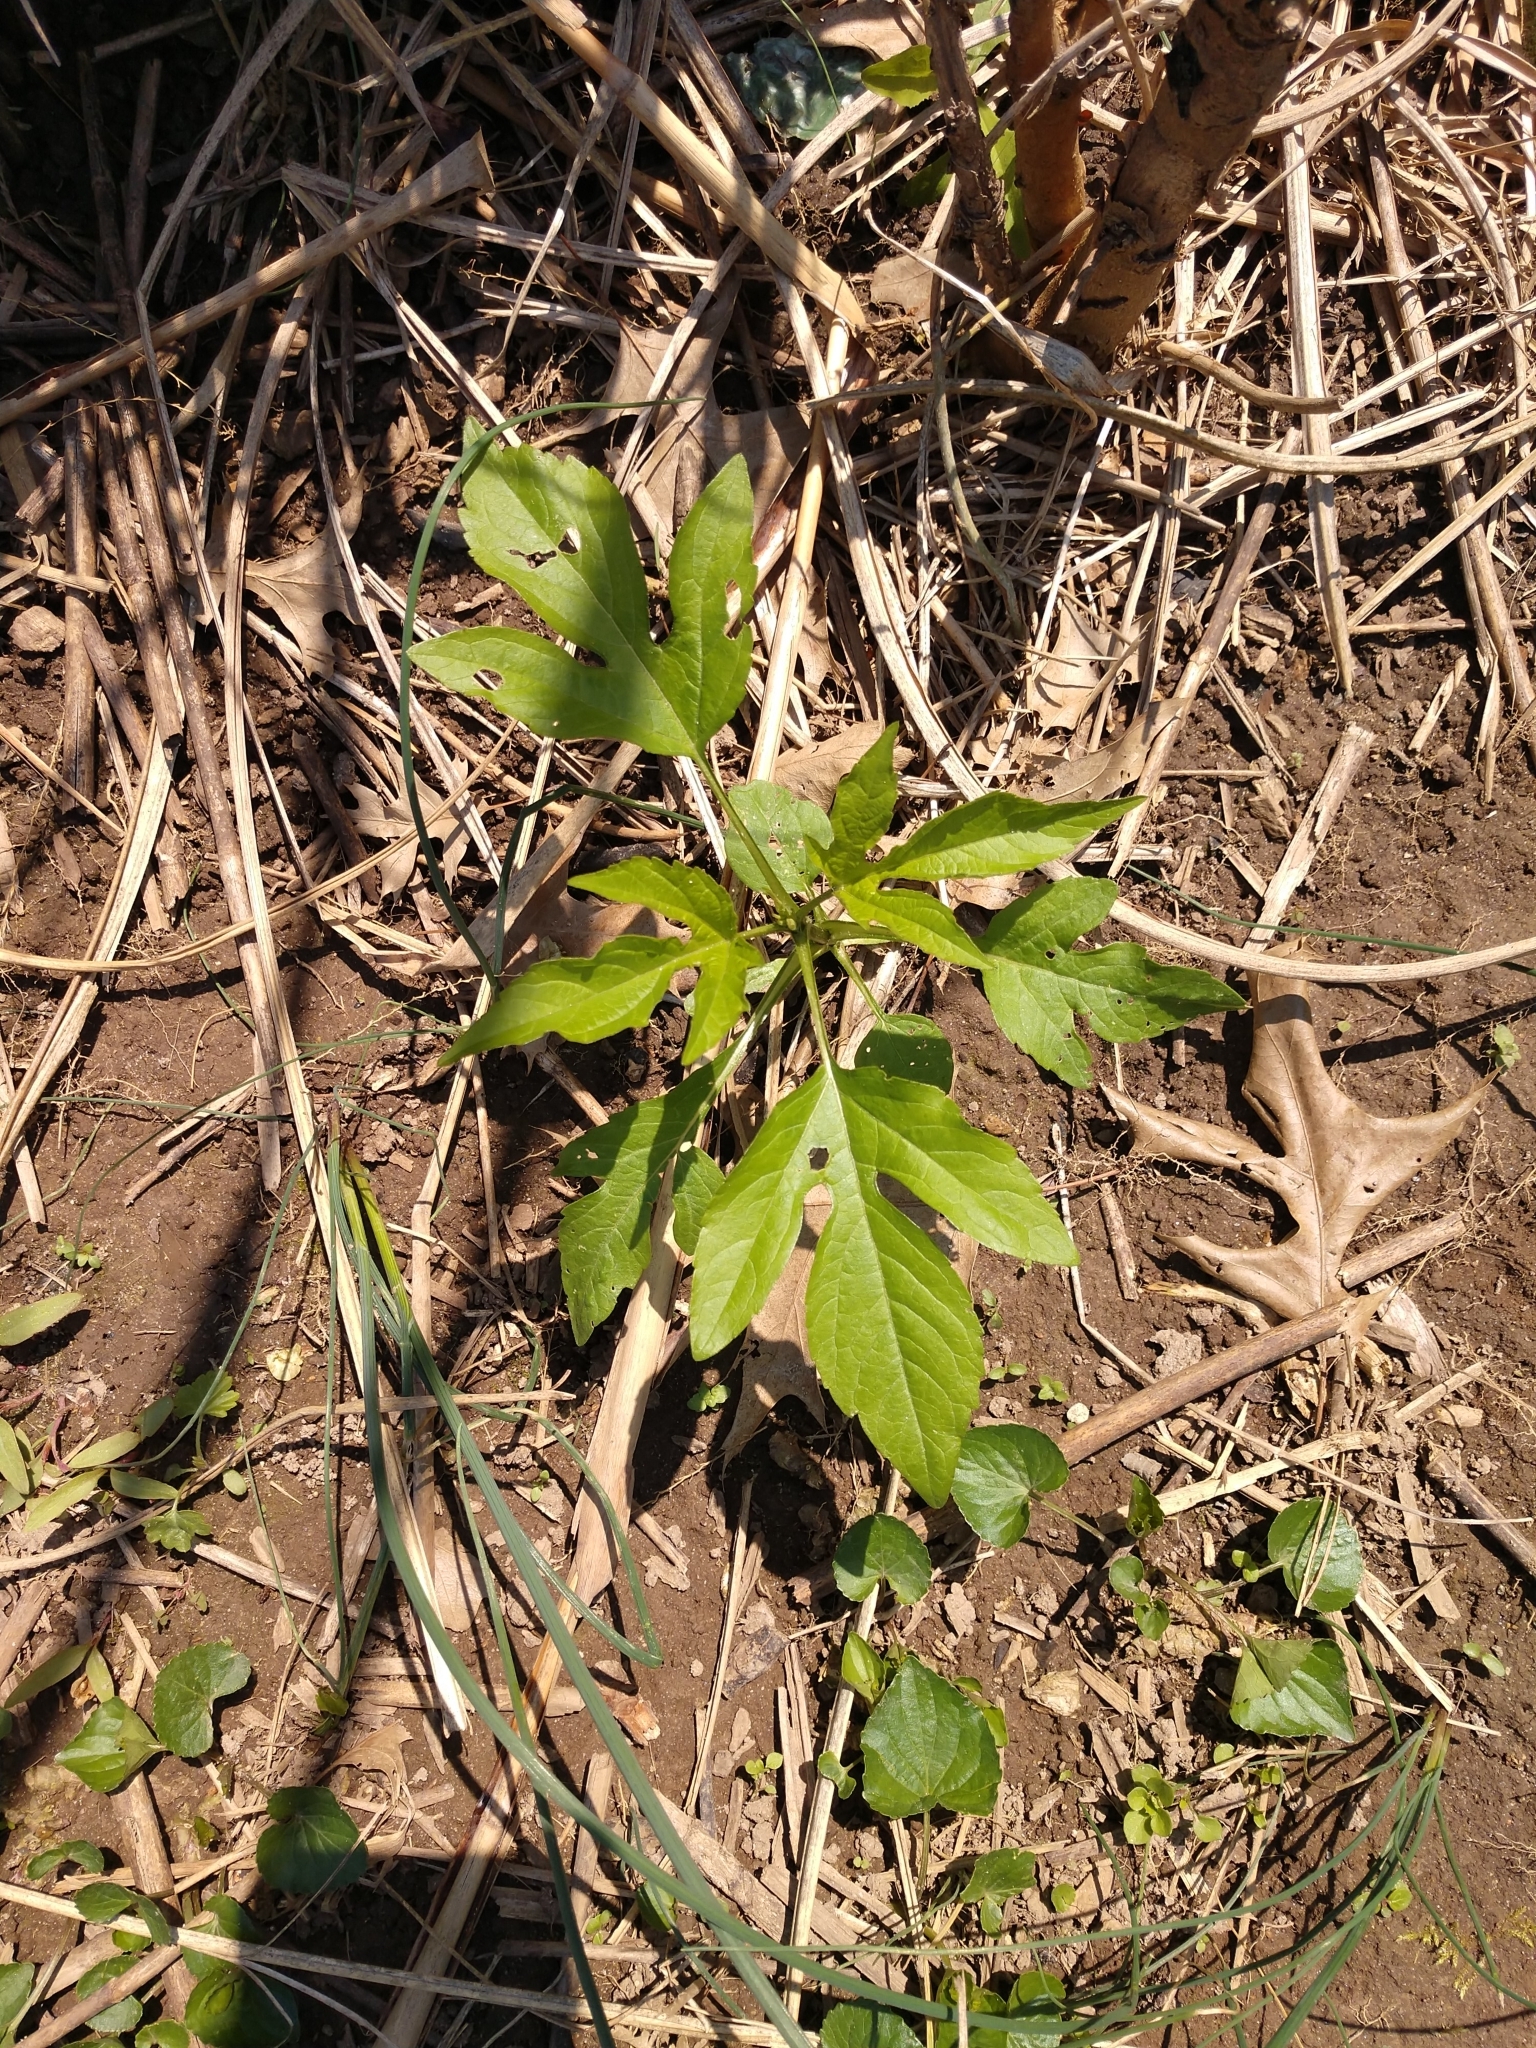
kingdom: Plantae
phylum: Tracheophyta
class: Magnoliopsida
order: Asterales
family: Asteraceae
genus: Ambrosia
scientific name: Ambrosia trifida
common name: Giant ragweed
